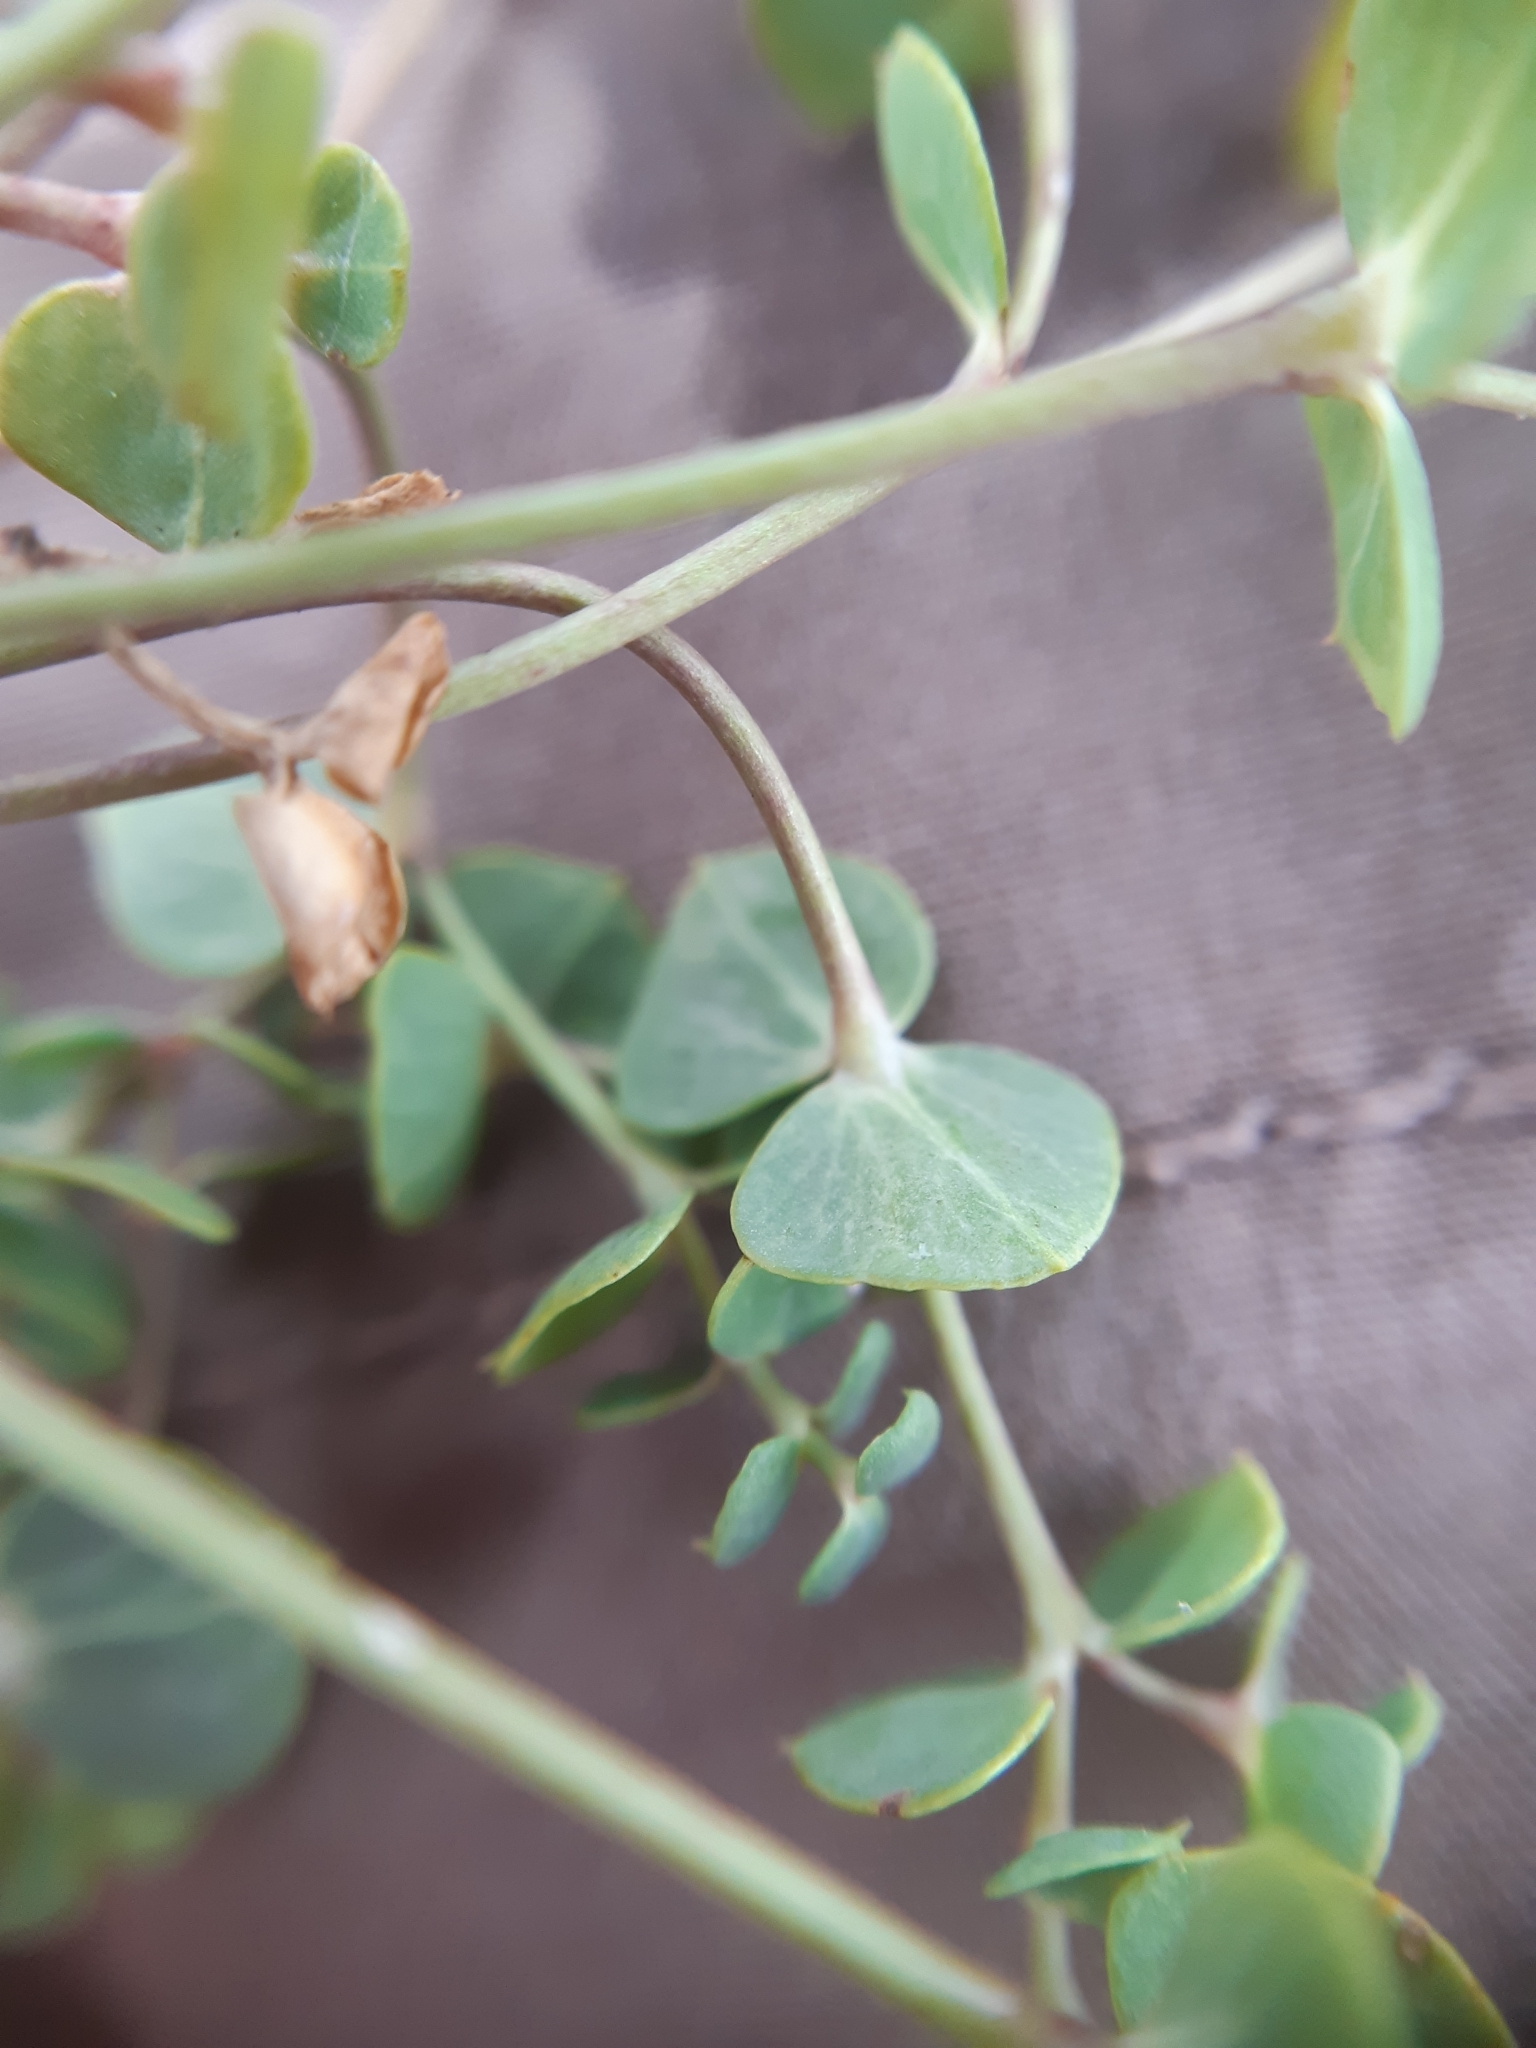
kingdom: Plantae
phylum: Tracheophyta
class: Magnoliopsida
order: Malpighiales
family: Euphorbiaceae
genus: Euphorbia
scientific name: Euphorbia glareosa
